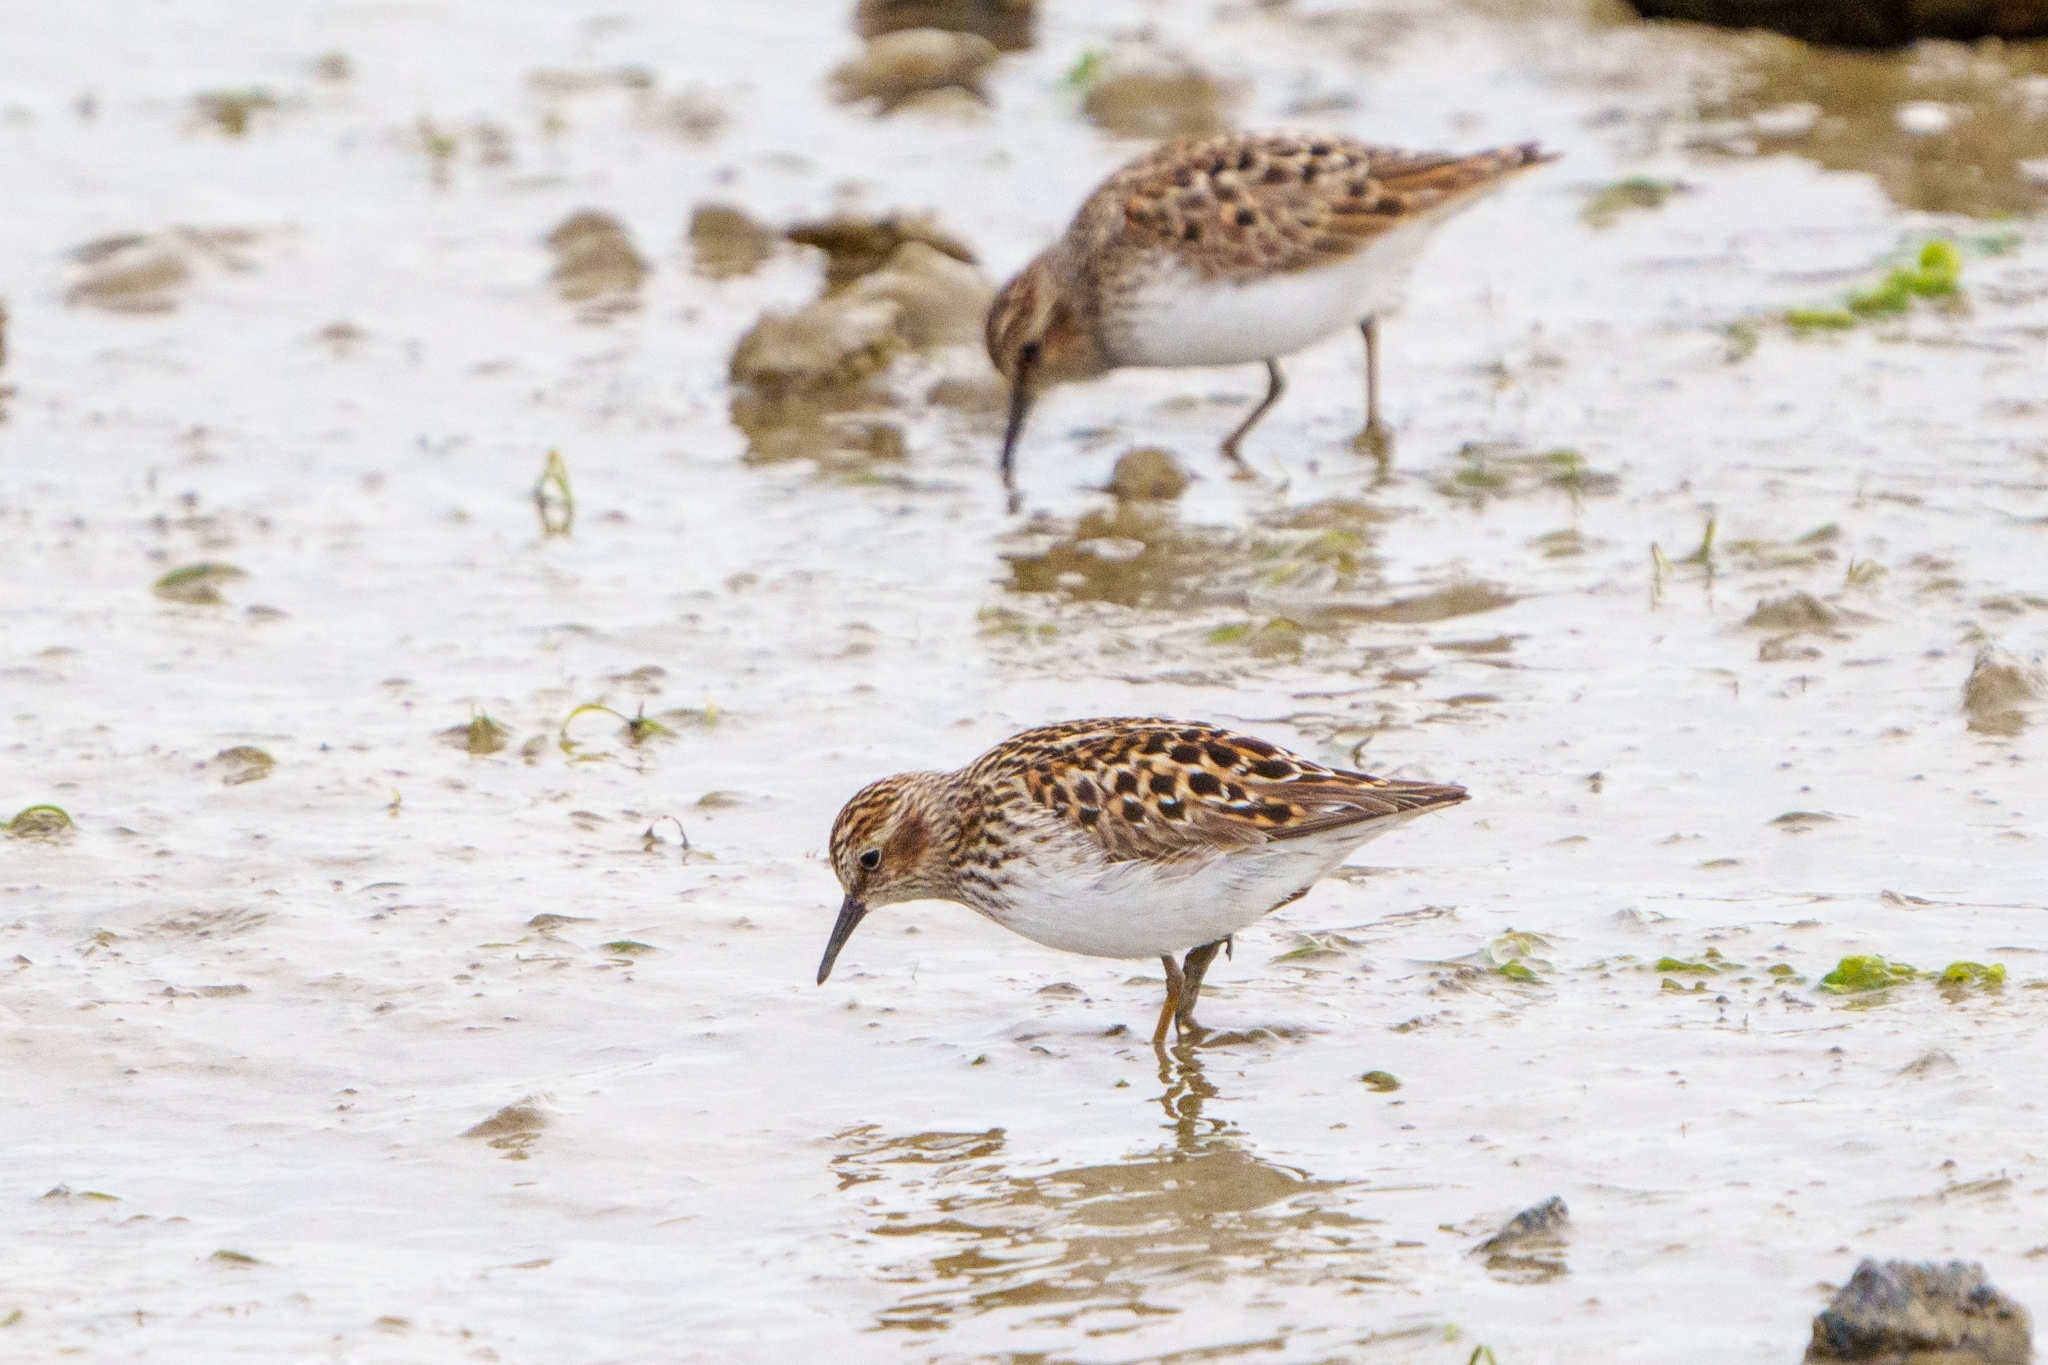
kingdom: Animalia
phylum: Chordata
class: Aves
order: Charadriiformes
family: Scolopacidae
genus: Calidris
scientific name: Calidris minutilla
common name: Least sandpiper
